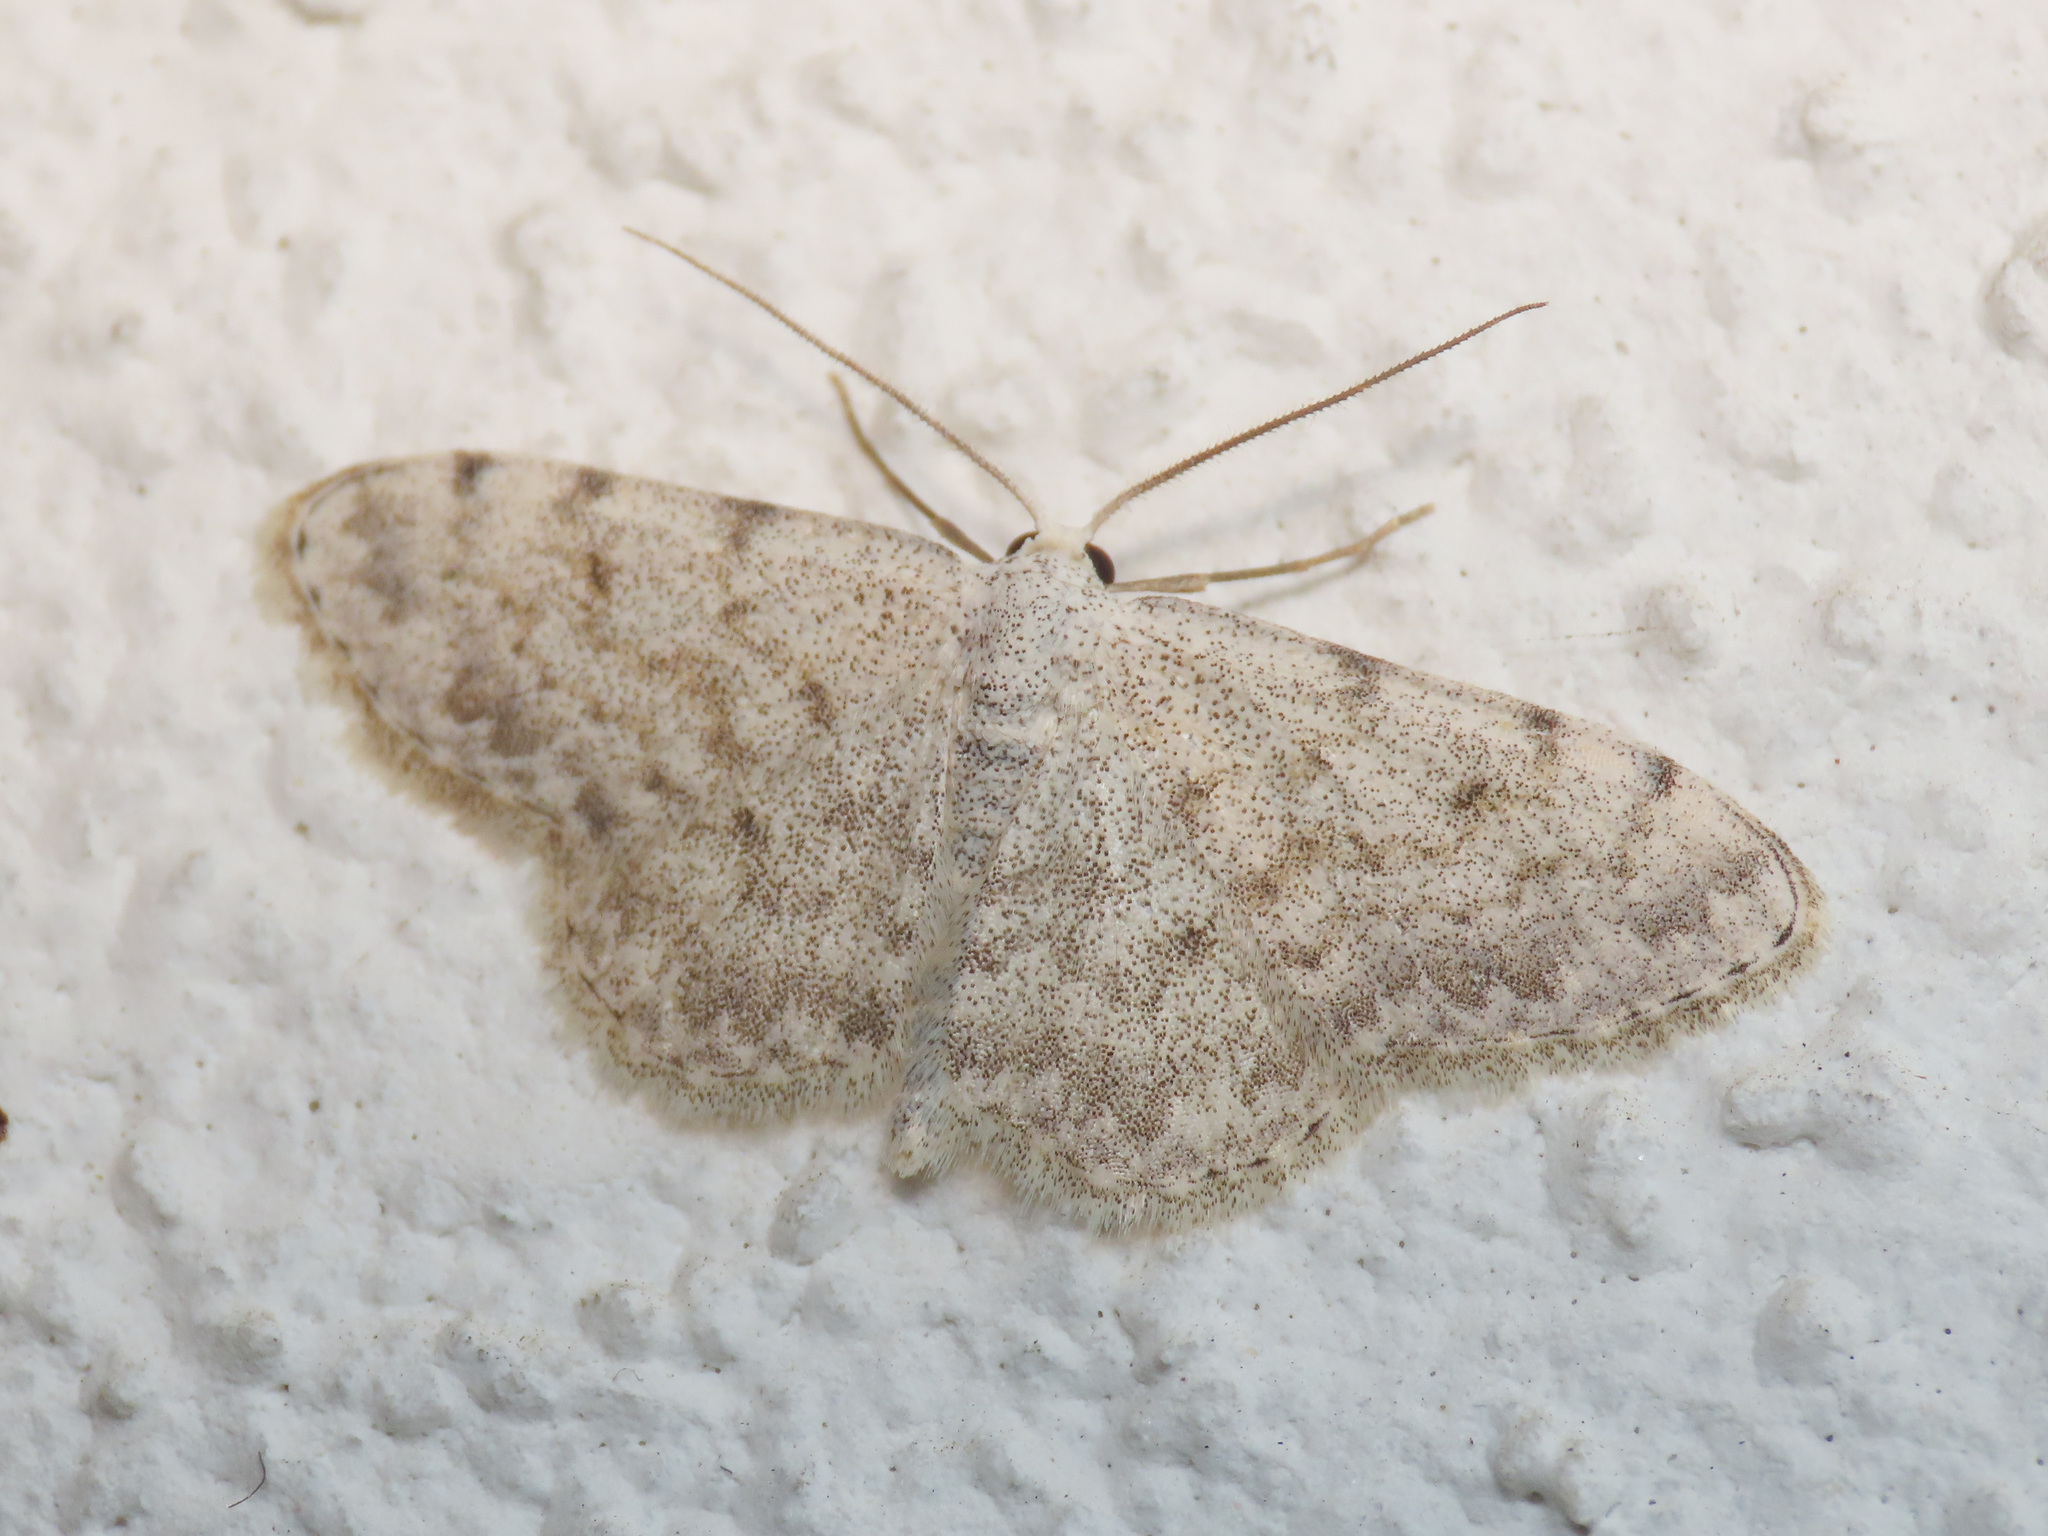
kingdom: Animalia
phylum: Arthropoda
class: Insecta
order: Lepidoptera
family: Geometridae
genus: Scopula
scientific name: Scopula alba
